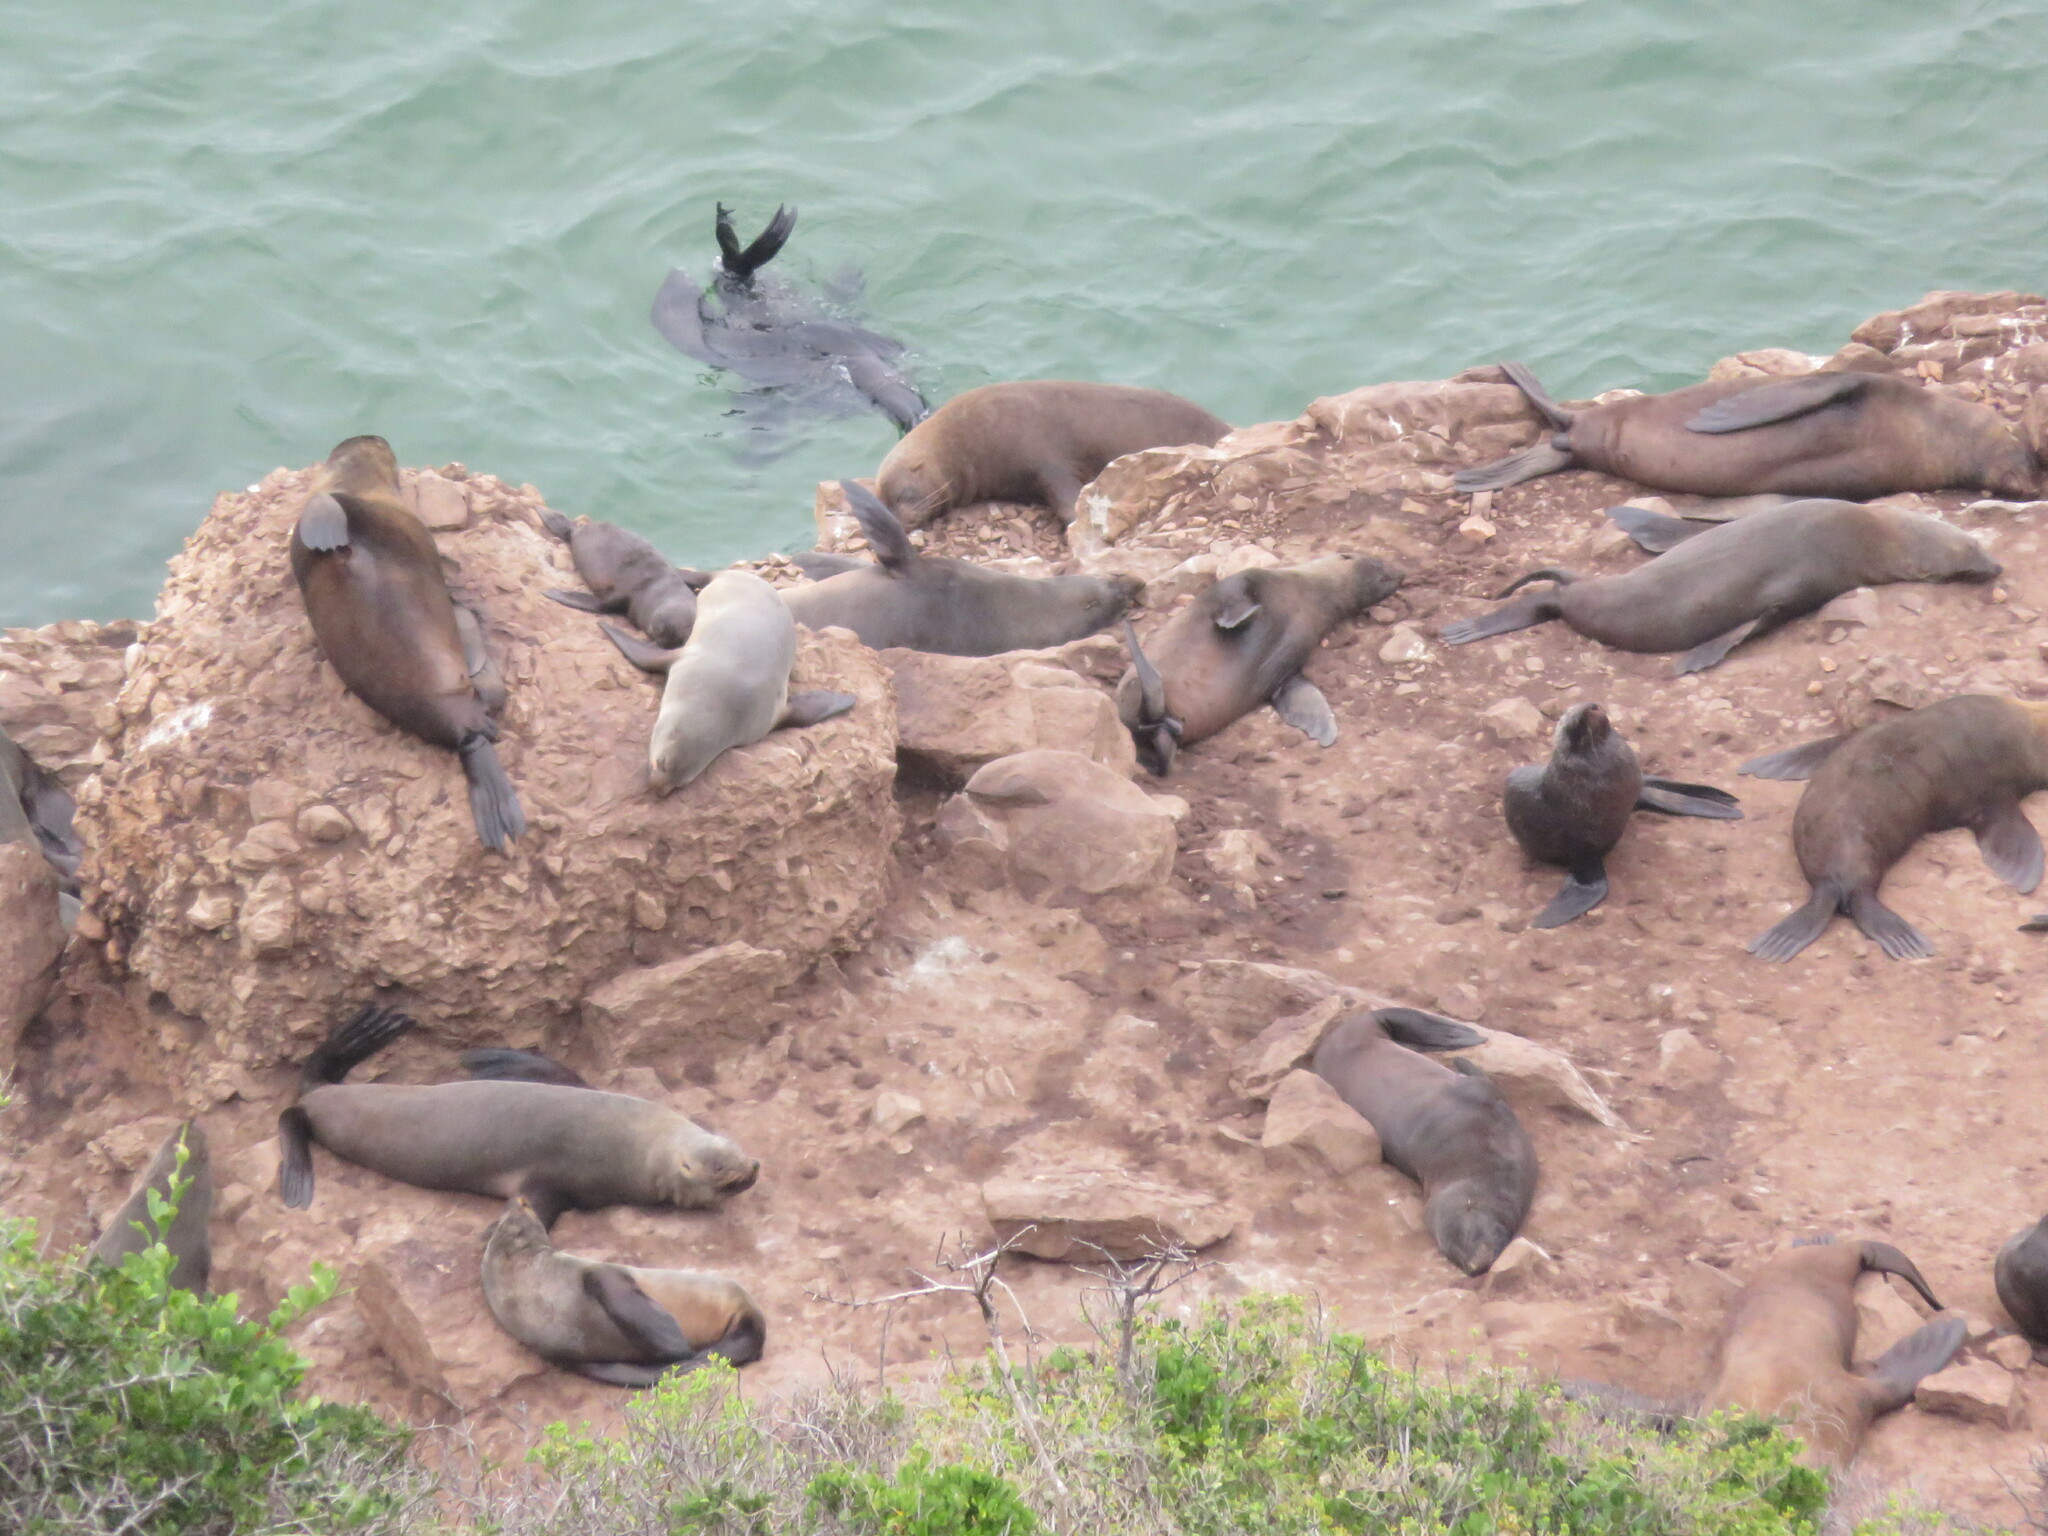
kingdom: Animalia
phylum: Chordata
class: Mammalia
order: Carnivora
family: Otariidae
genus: Arctocephalus
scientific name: Arctocephalus pusillus
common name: Brown fur seal
